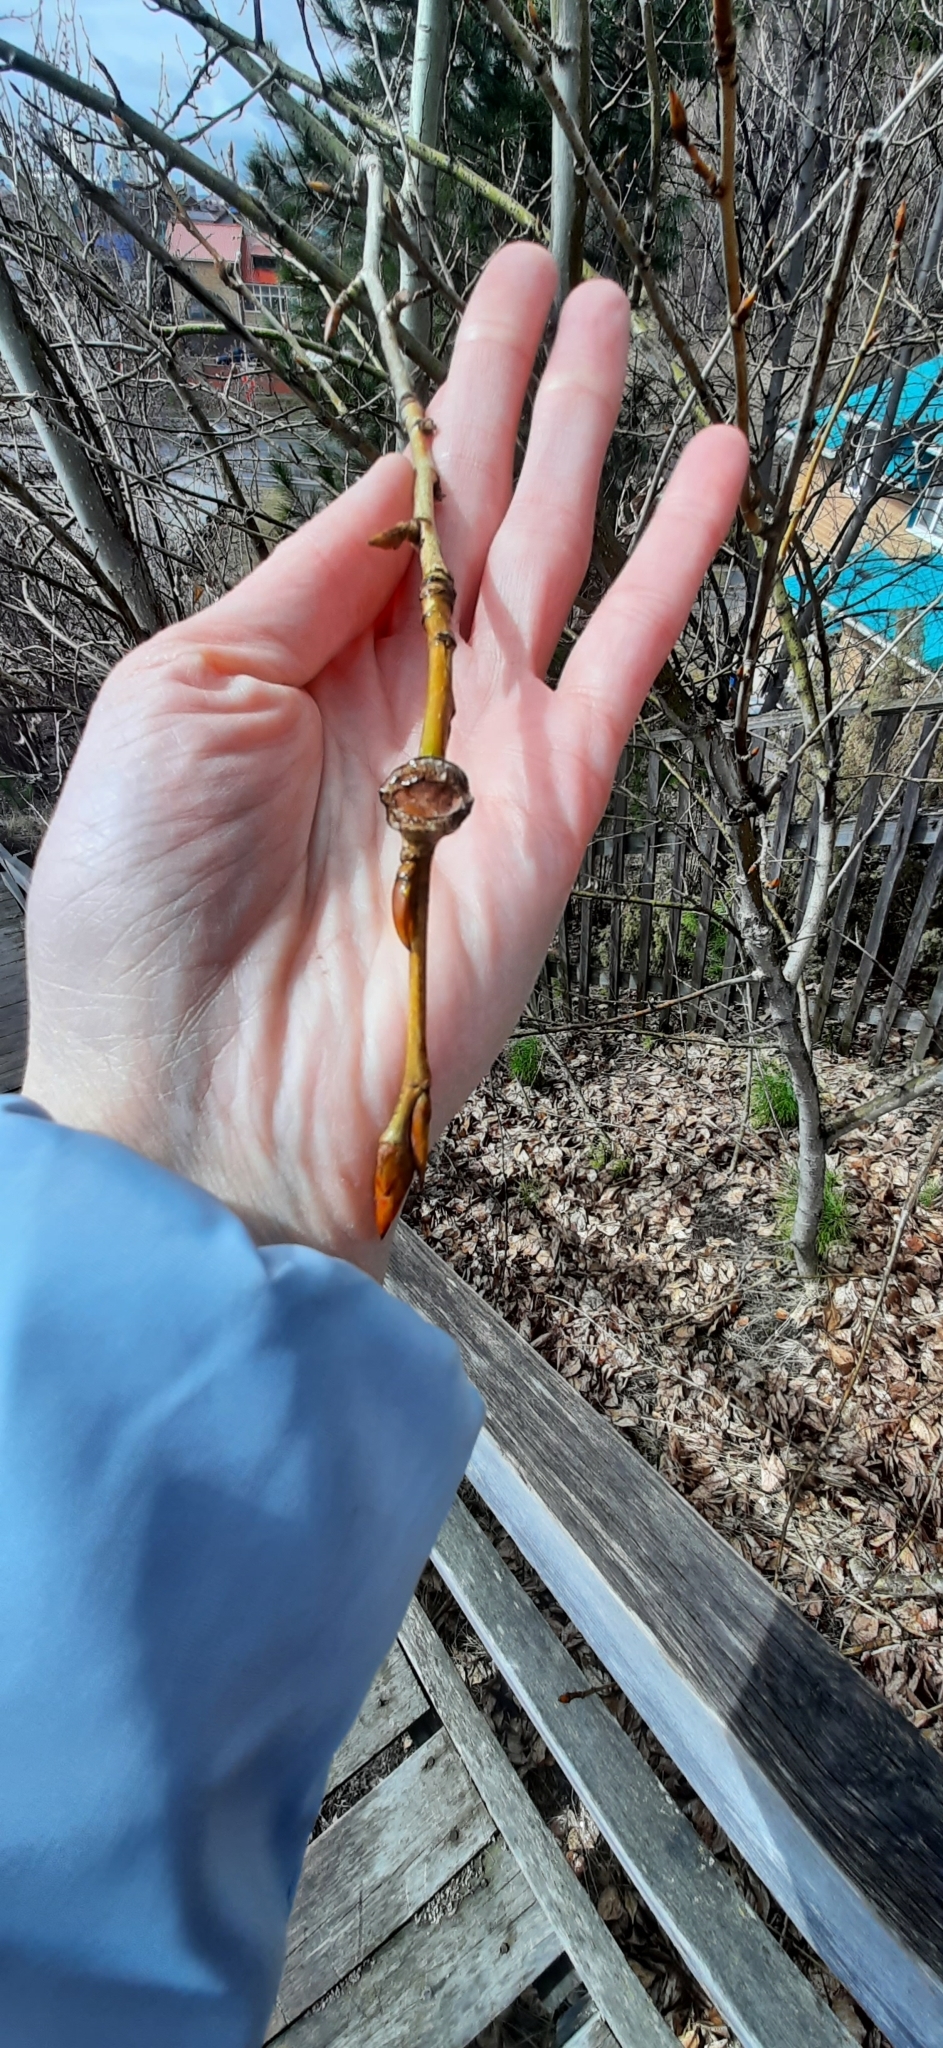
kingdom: Plantae
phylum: Tracheophyta
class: Magnoliopsida
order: Malpighiales
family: Salicaceae
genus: Populus
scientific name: Populus sibirica
